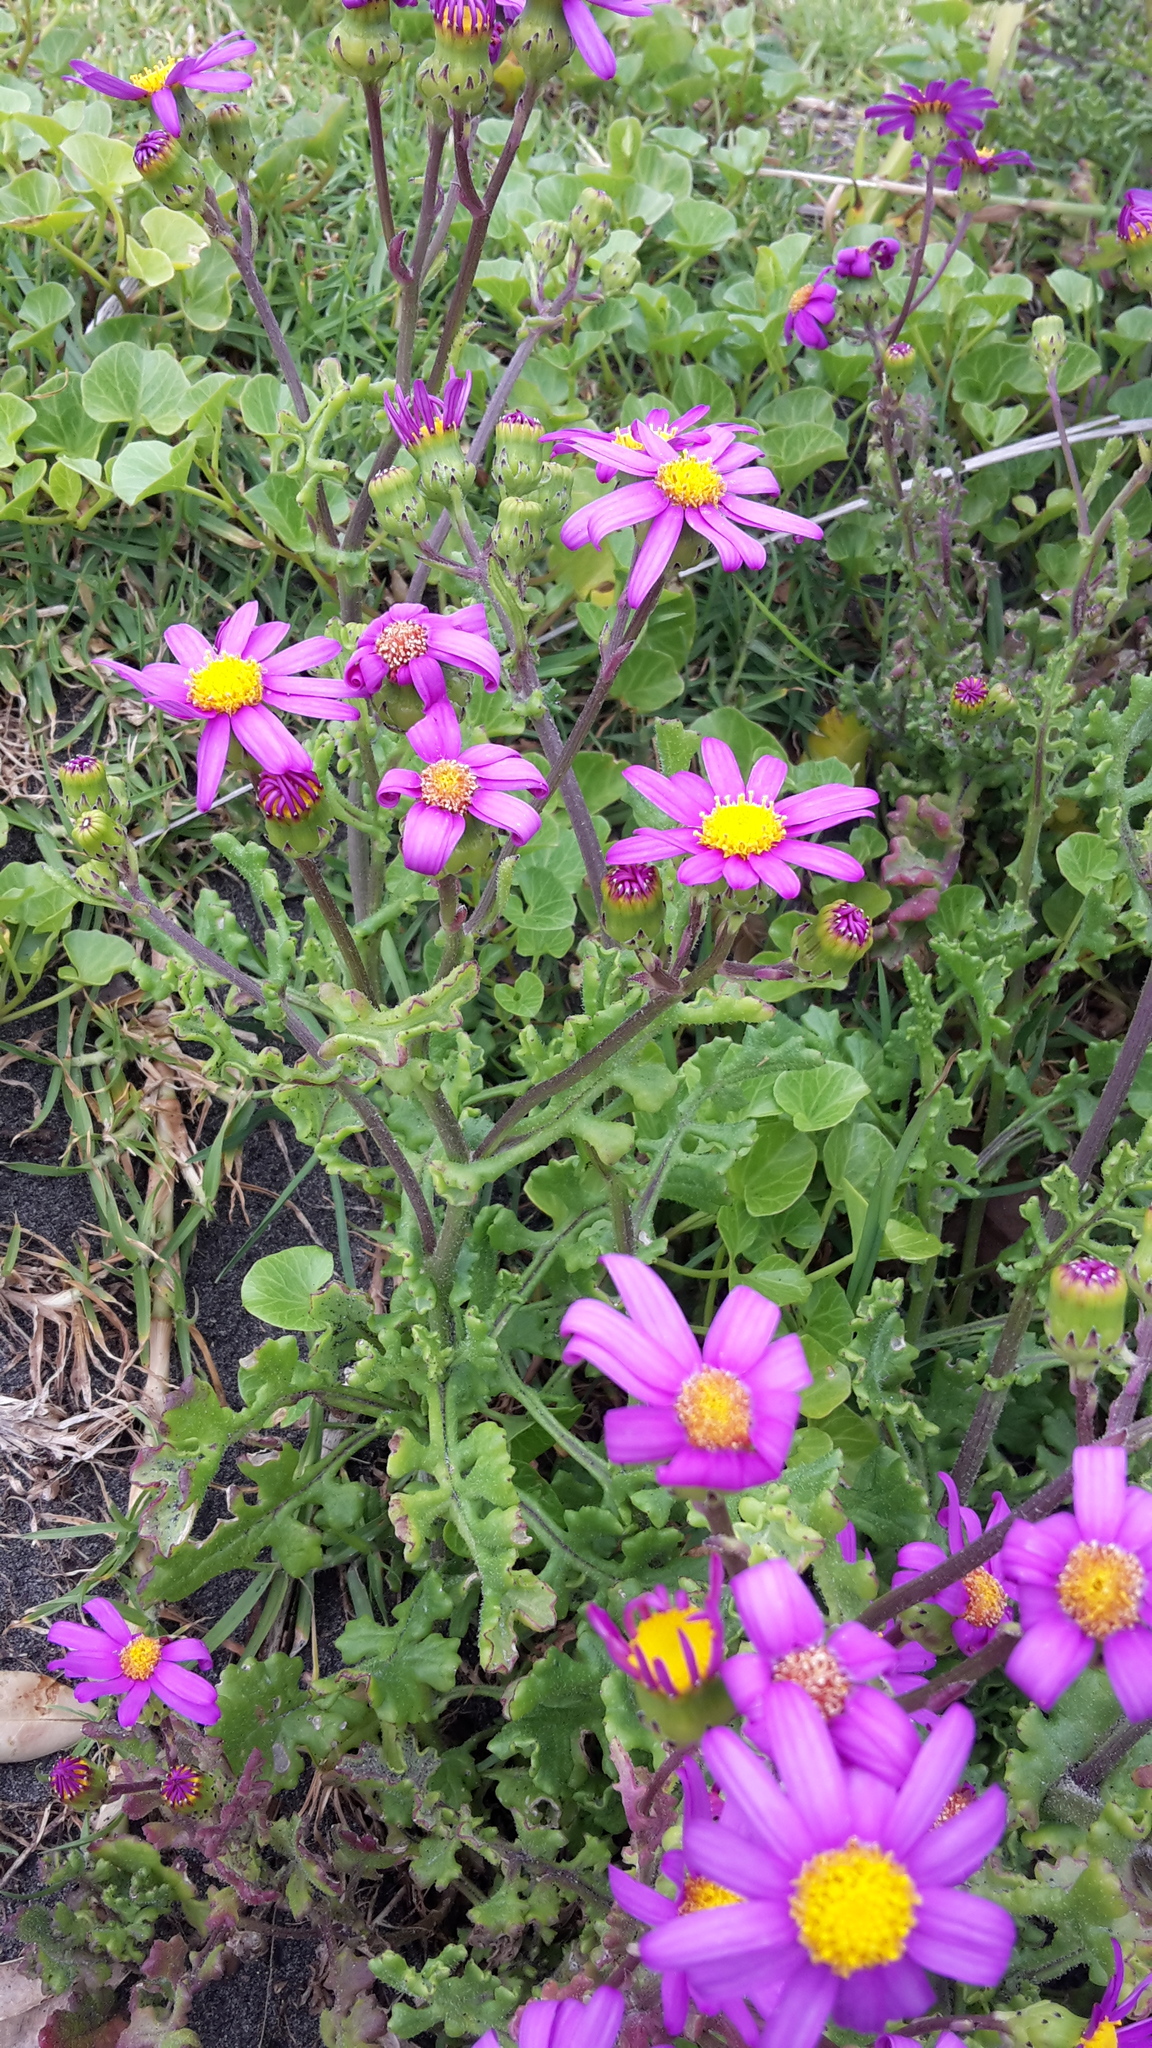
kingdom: Plantae
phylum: Tracheophyta
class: Magnoliopsida
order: Asterales
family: Asteraceae
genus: Senecio
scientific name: Senecio elegans
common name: Purple groundsel
